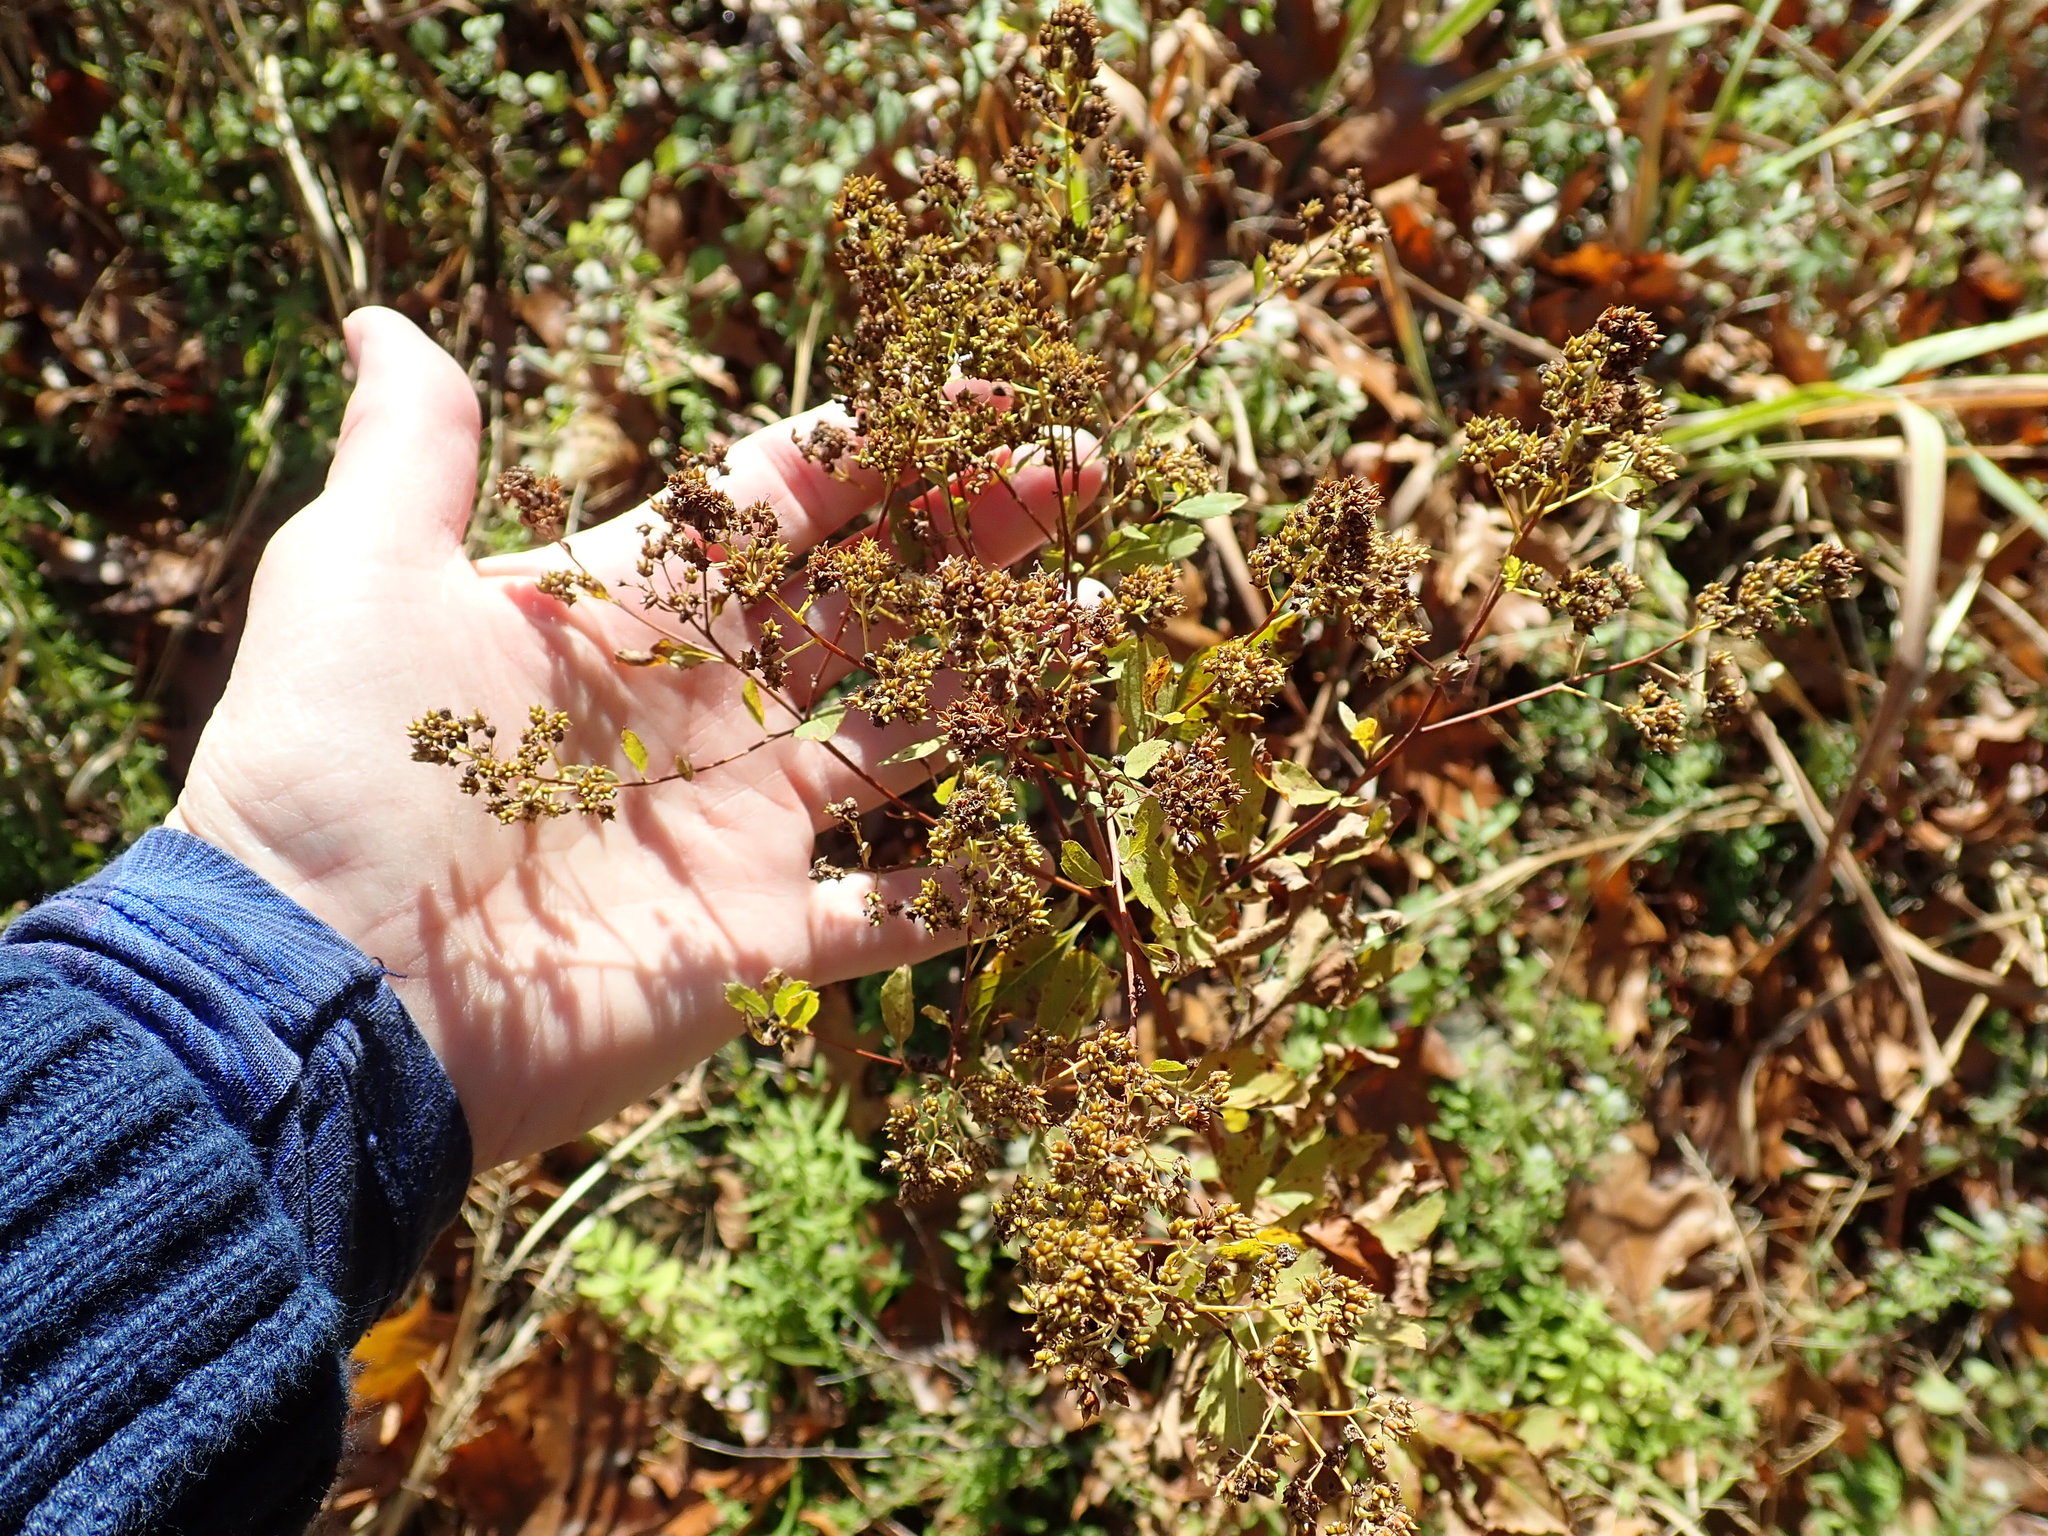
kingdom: Plantae
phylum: Tracheophyta
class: Magnoliopsida
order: Rosales
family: Rosaceae
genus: Spiraea
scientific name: Spiraea alba
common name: Pale bridewort
